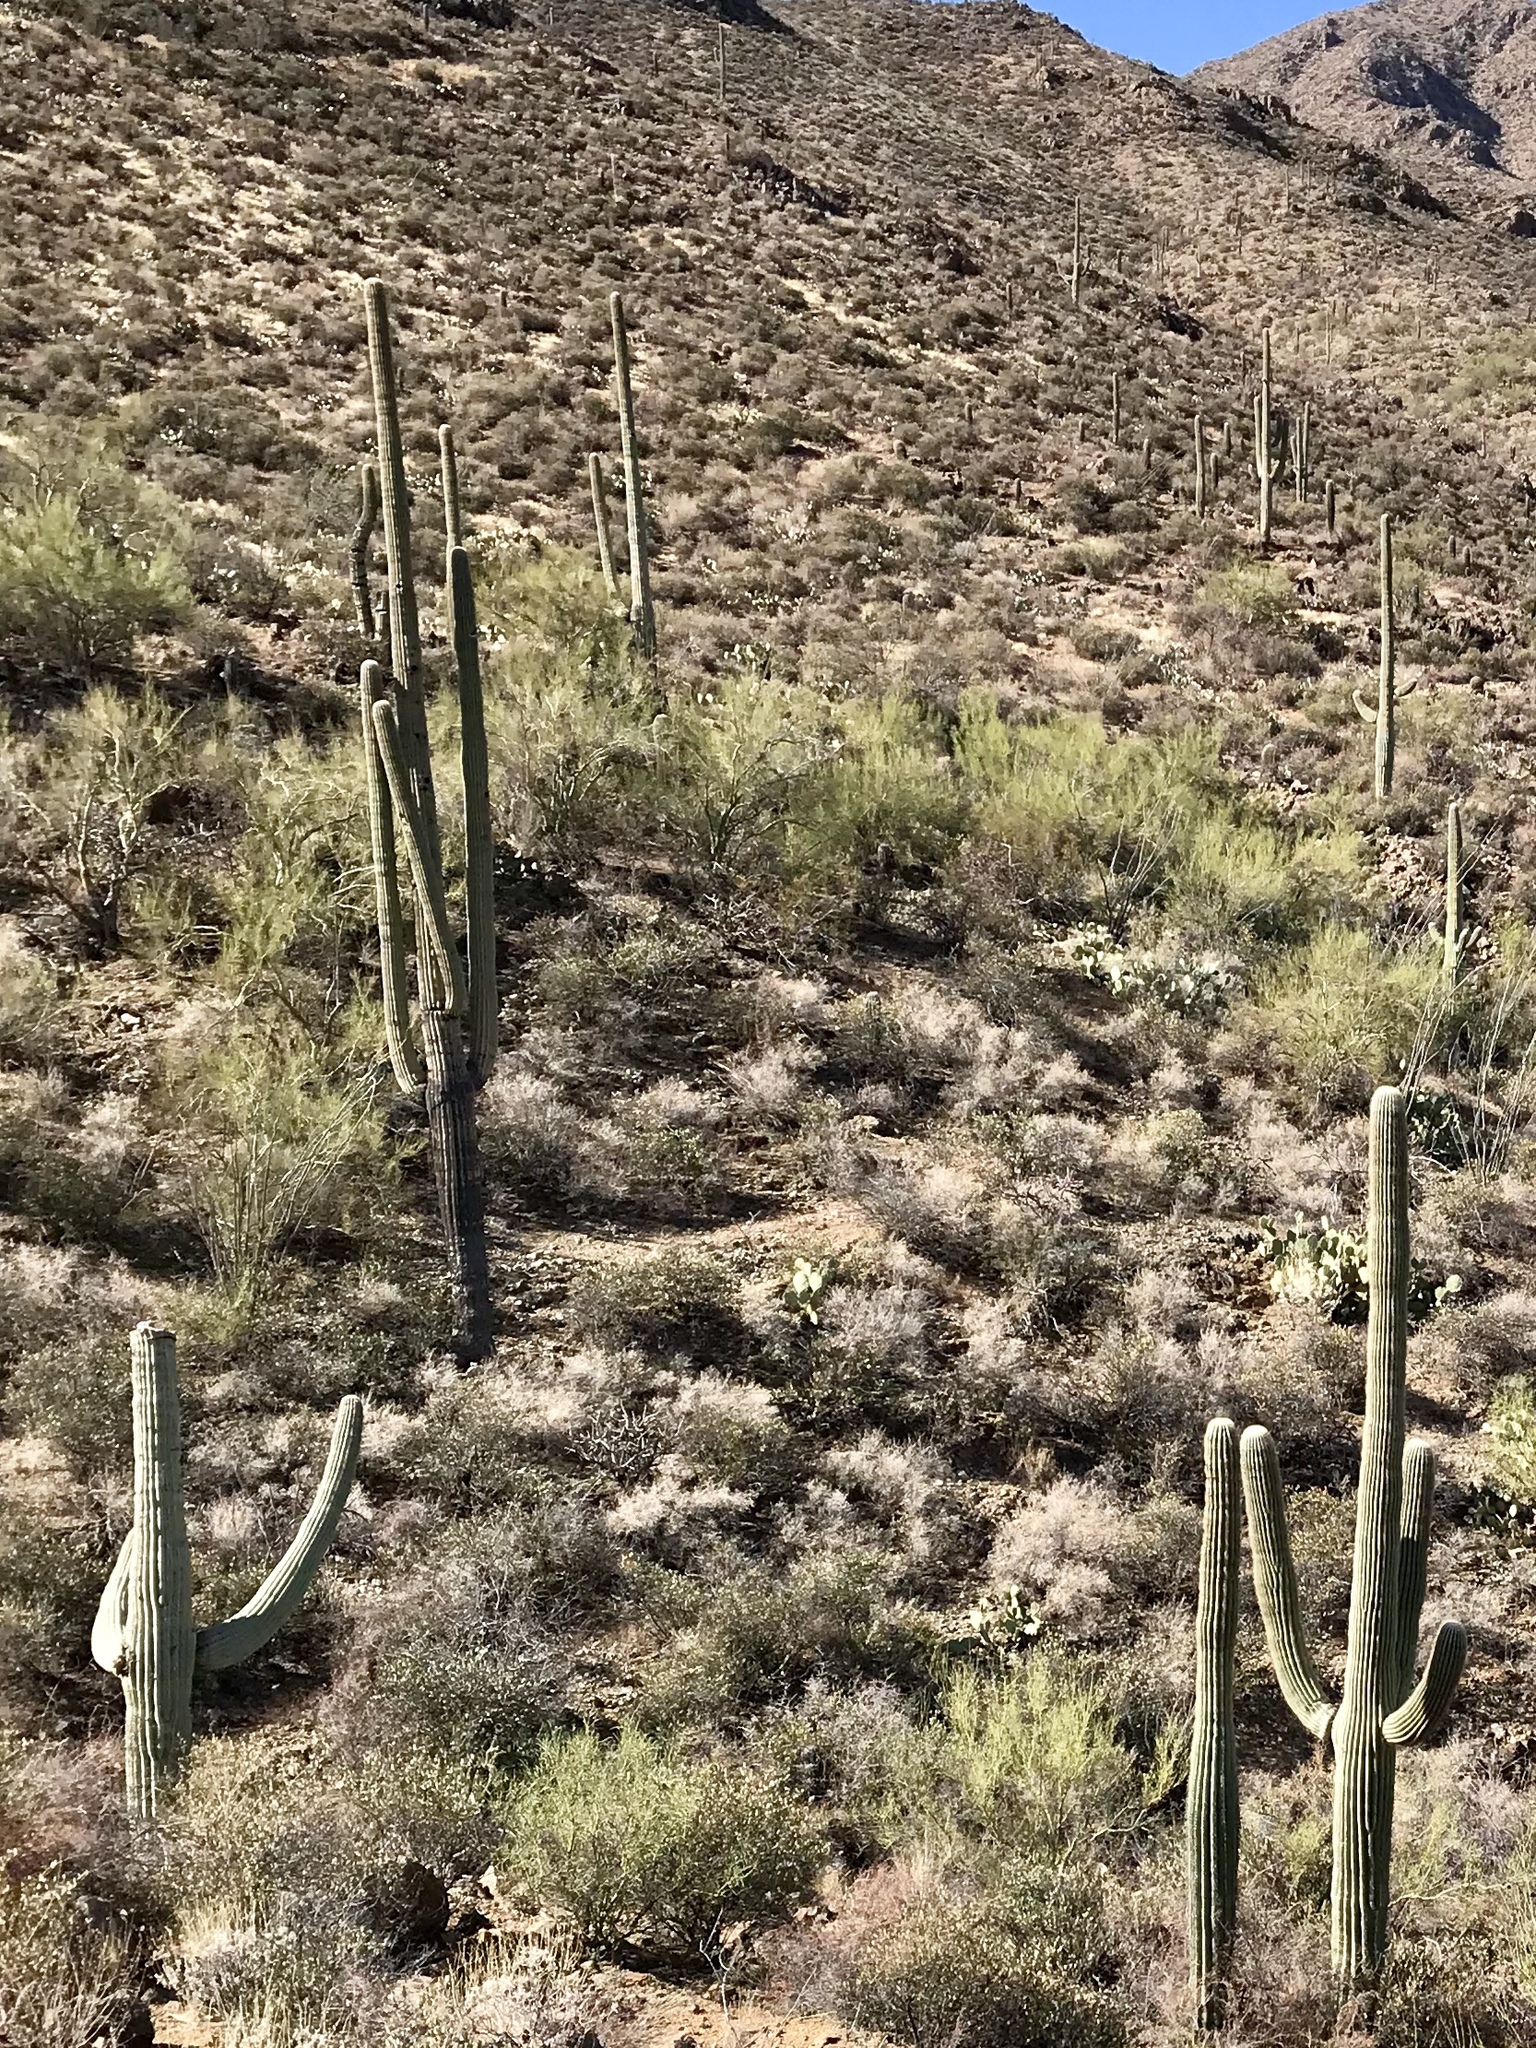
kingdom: Plantae
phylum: Tracheophyta
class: Magnoliopsida
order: Caryophyllales
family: Cactaceae
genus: Carnegiea
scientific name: Carnegiea gigantea
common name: Saguaro
